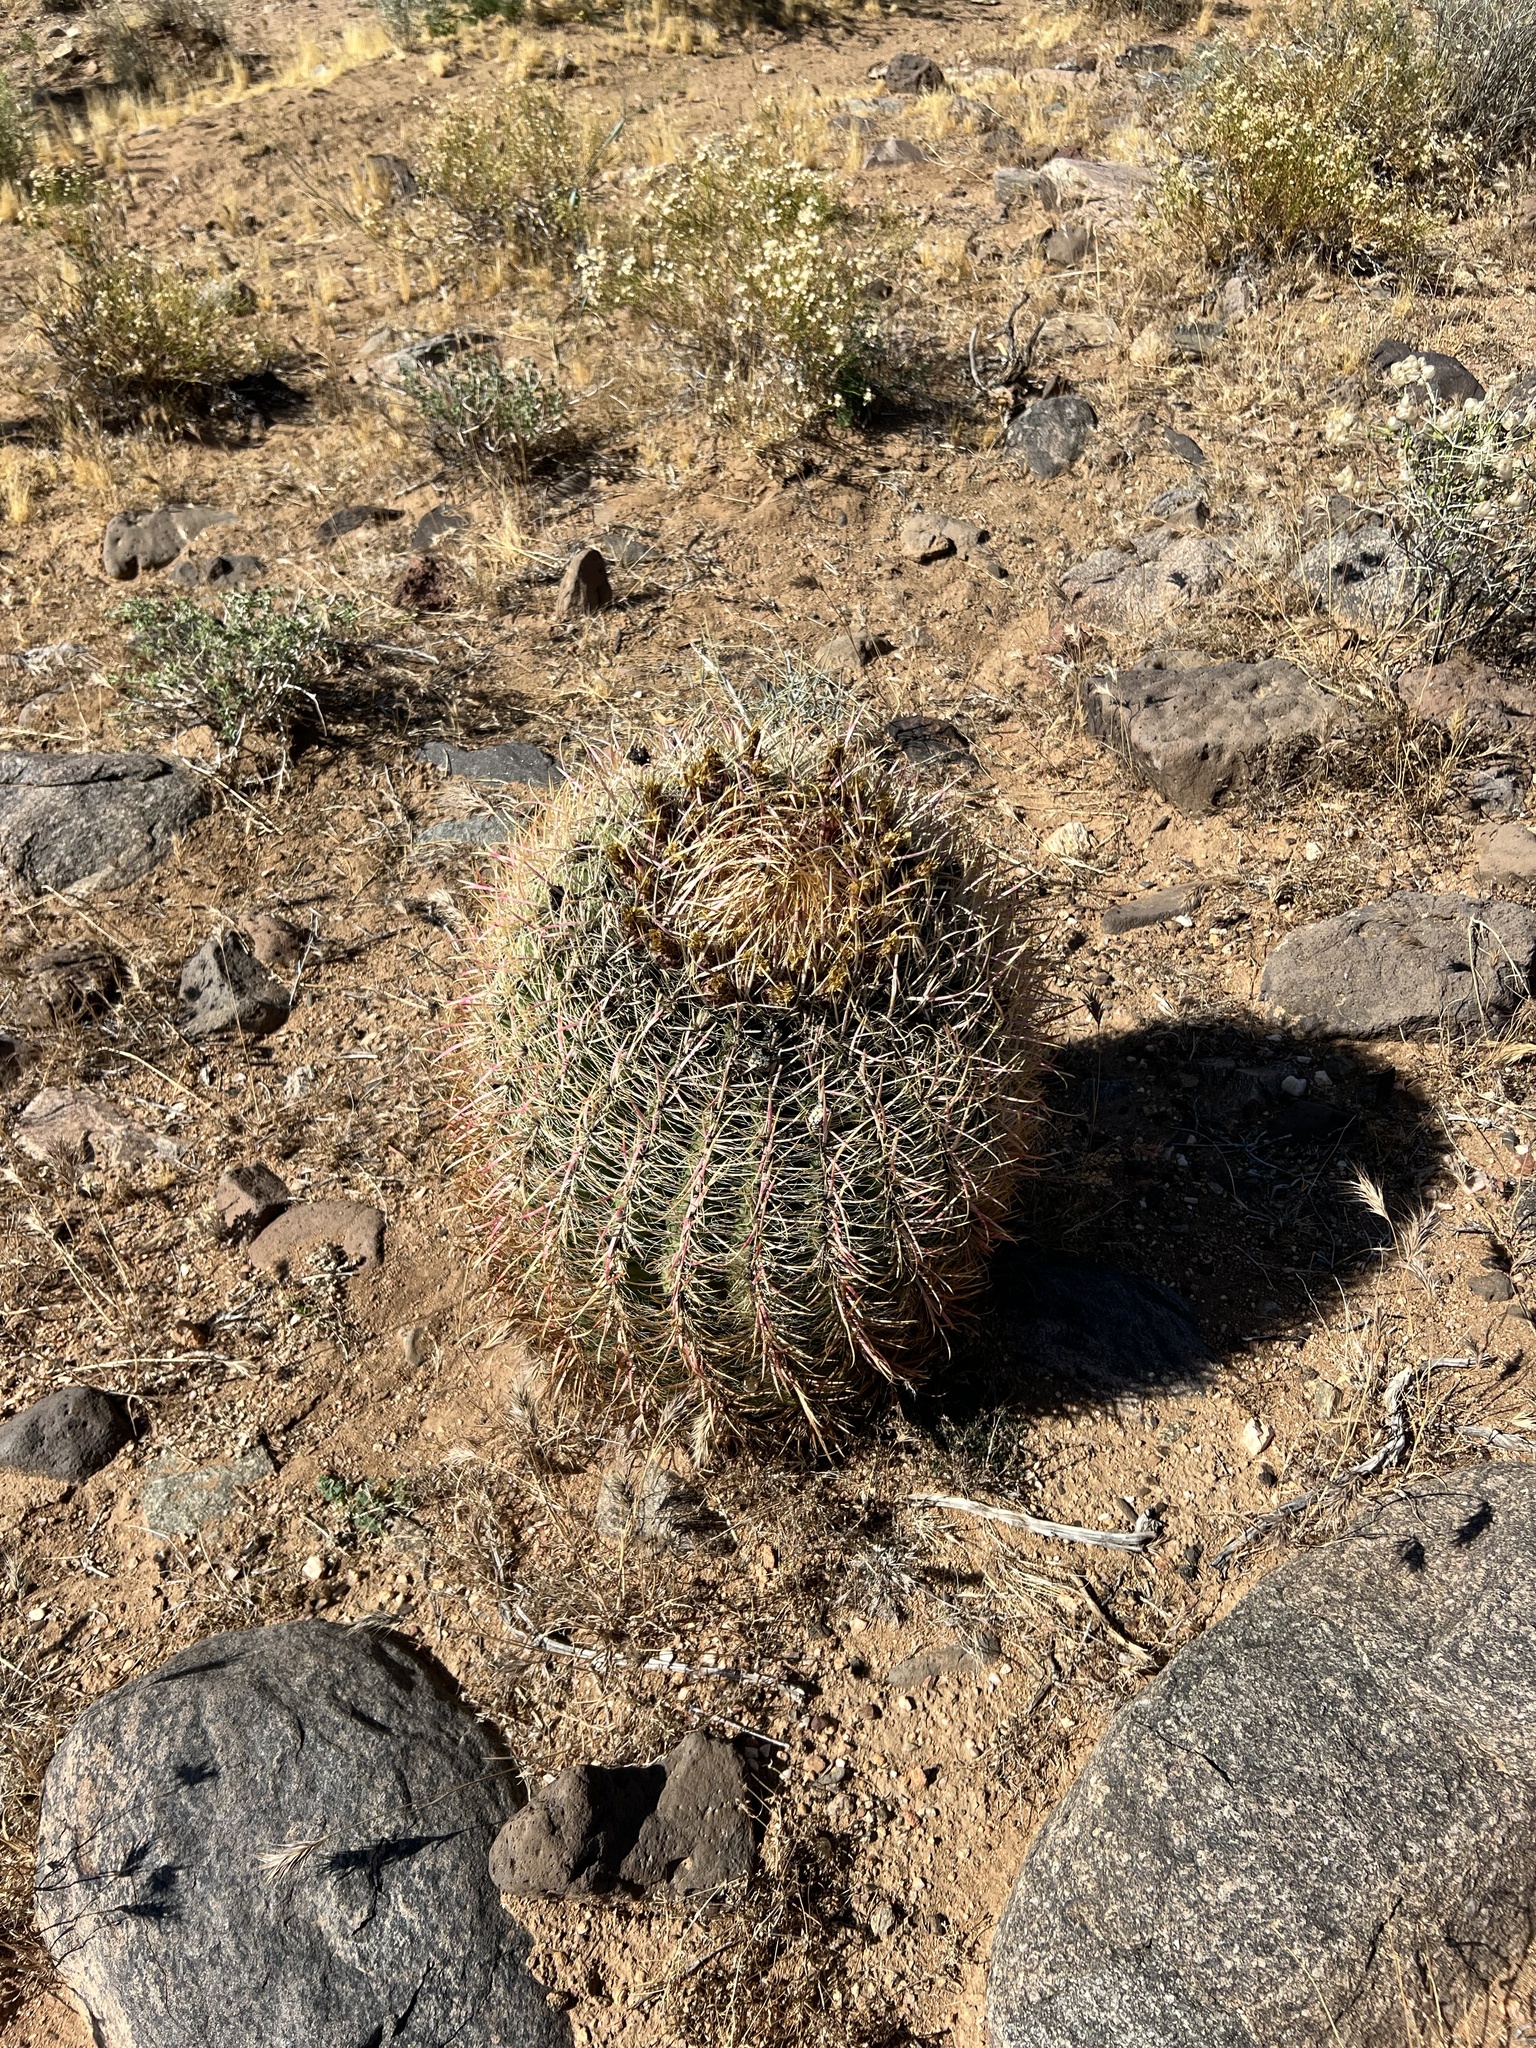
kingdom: Plantae
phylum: Tracheophyta
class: Magnoliopsida
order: Caryophyllales
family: Cactaceae
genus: Ferocactus
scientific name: Ferocactus cylindraceus
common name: California barrel cactus
